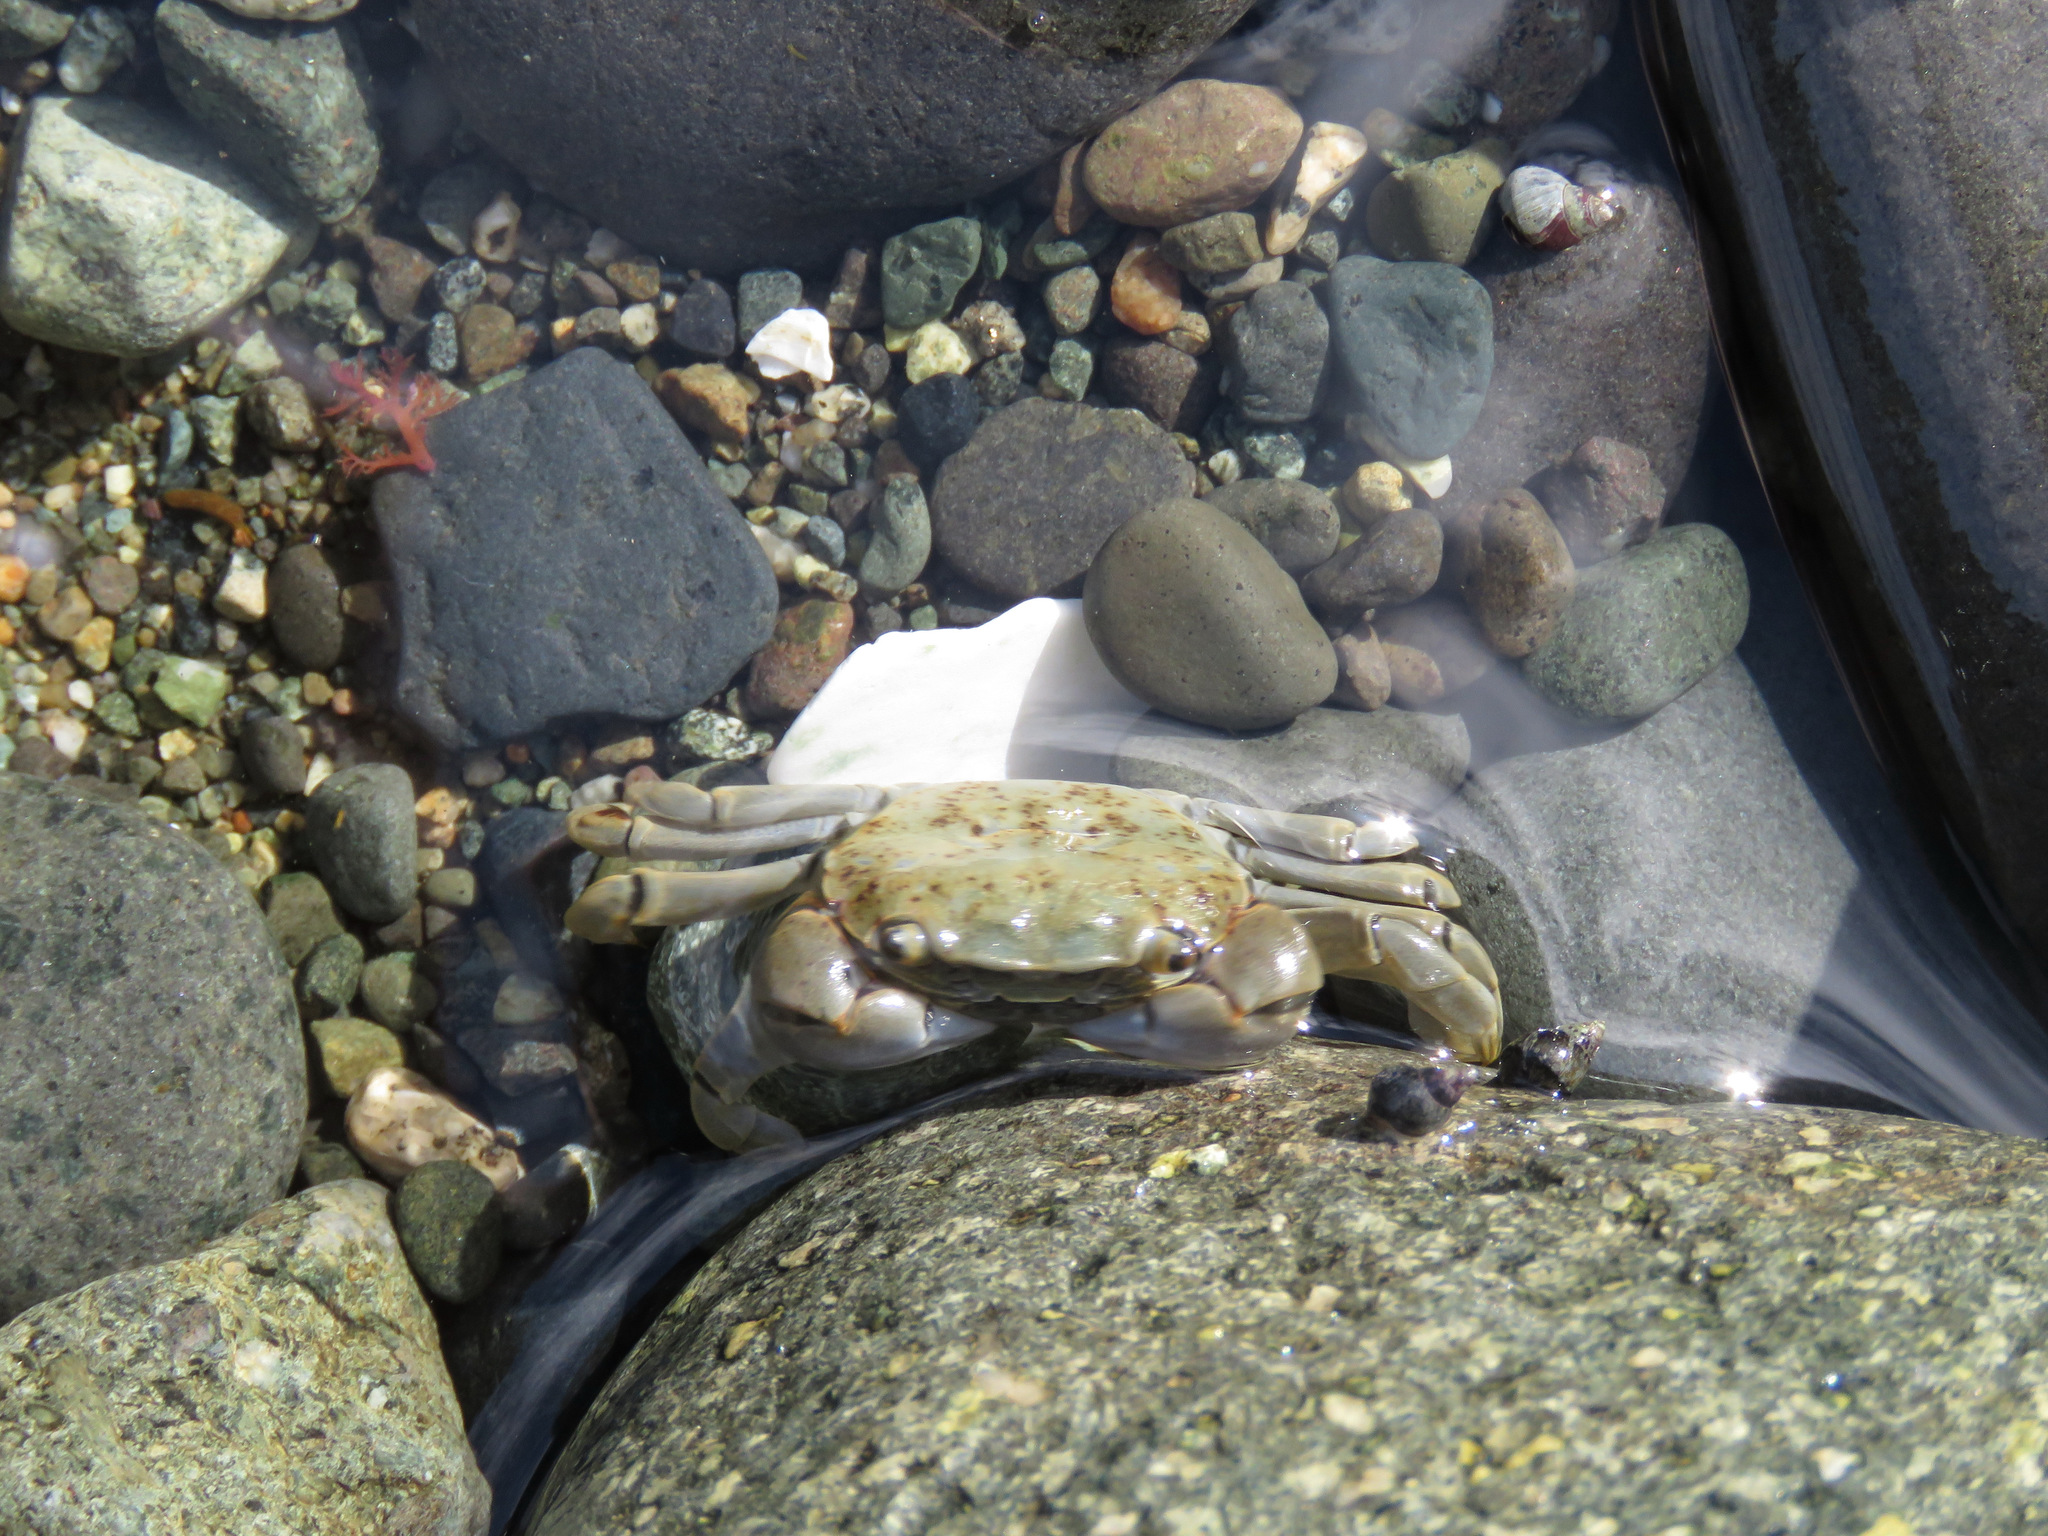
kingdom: Animalia
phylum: Arthropoda
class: Malacostraca
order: Decapoda
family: Varunidae
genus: Hemigrapsus
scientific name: Hemigrapsus nudus
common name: Purple shore crab
